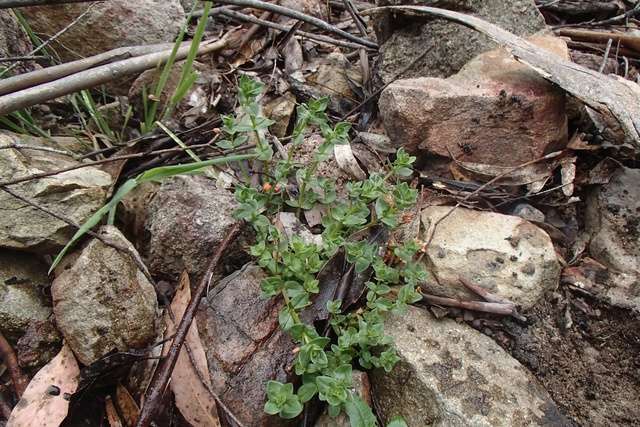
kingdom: Plantae
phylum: Tracheophyta
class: Magnoliopsida
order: Ericales
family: Primulaceae
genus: Lysimachia
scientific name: Lysimachia arvensis
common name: Scarlet pimpernel
